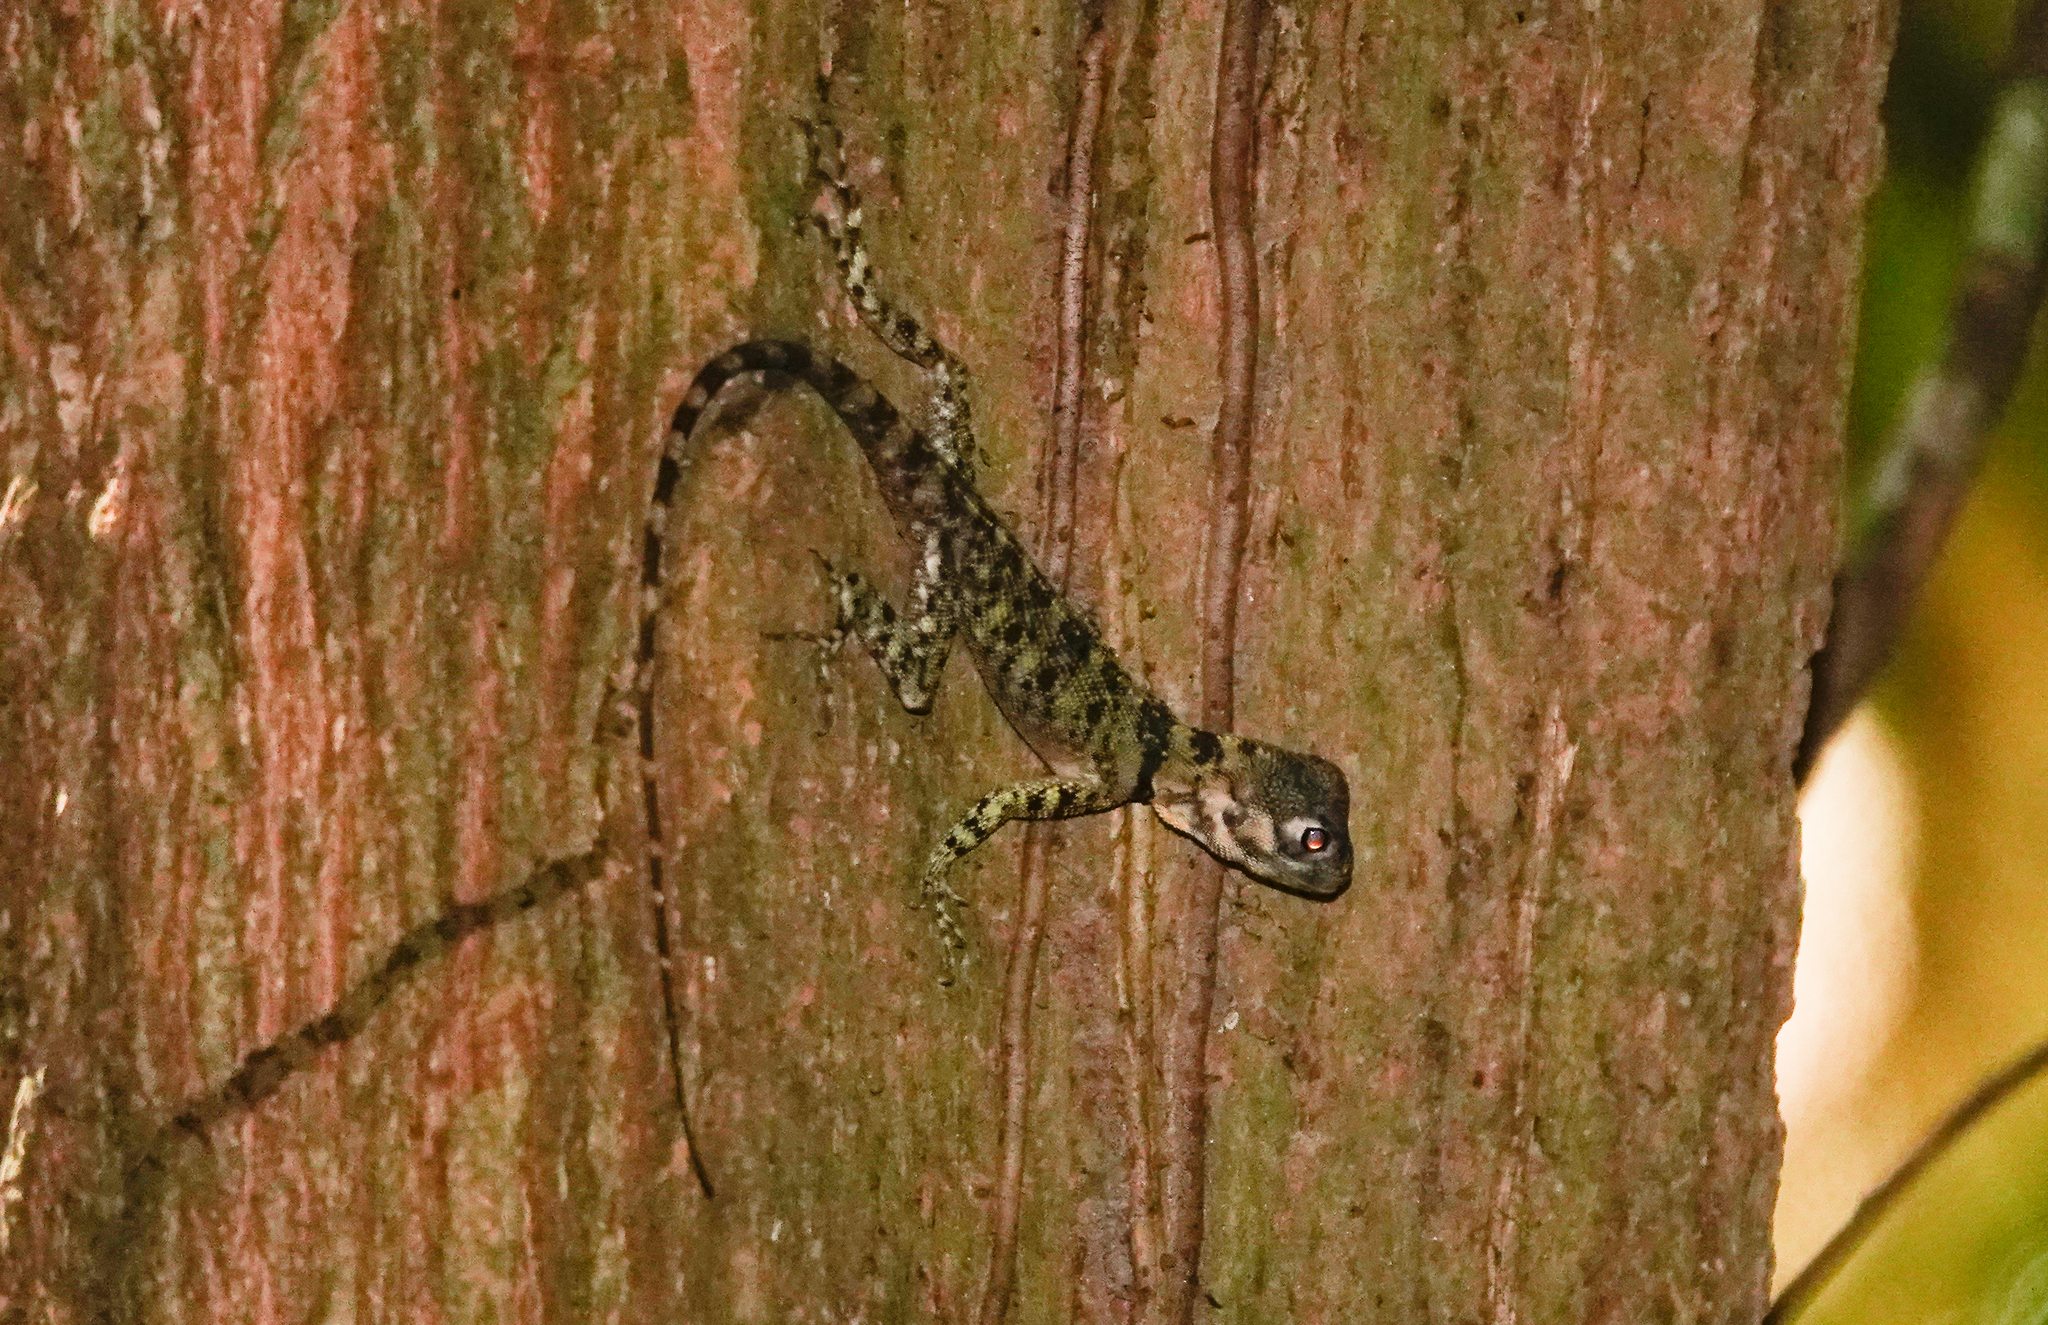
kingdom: Animalia
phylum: Chordata
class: Squamata
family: Tropiduridae
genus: Plica
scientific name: Plica umbra
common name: Harlequin racerunner
